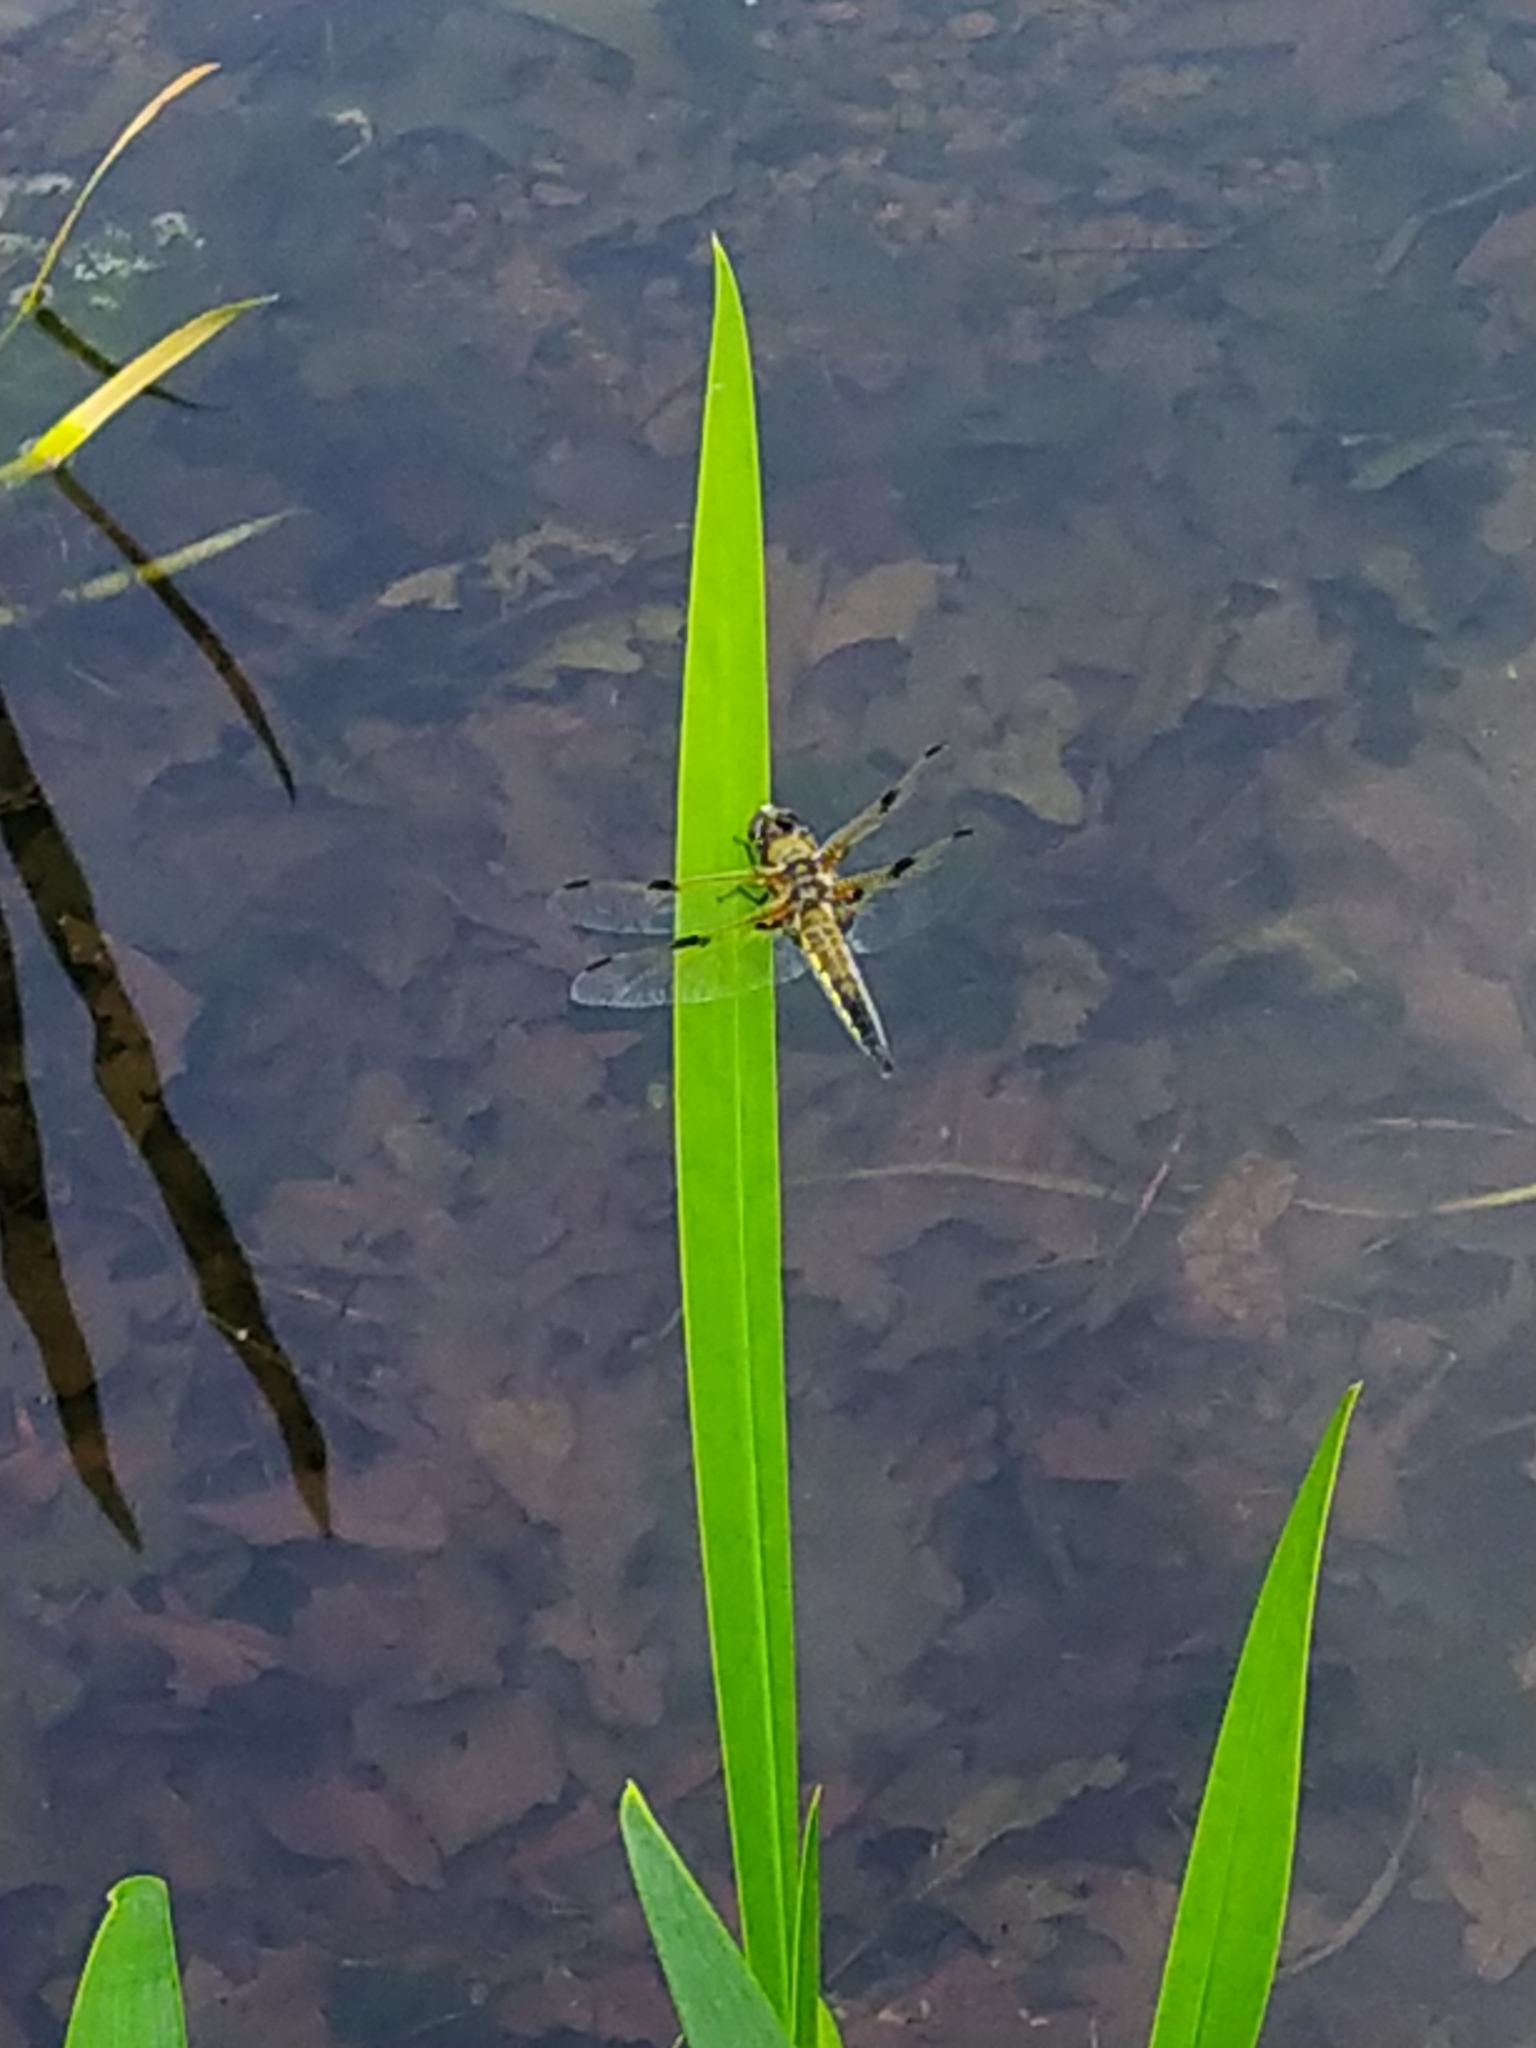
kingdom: Animalia
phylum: Arthropoda
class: Insecta
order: Odonata
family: Libellulidae
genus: Libellula
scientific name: Libellula quadrimaculata
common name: Four-spotted chaser
